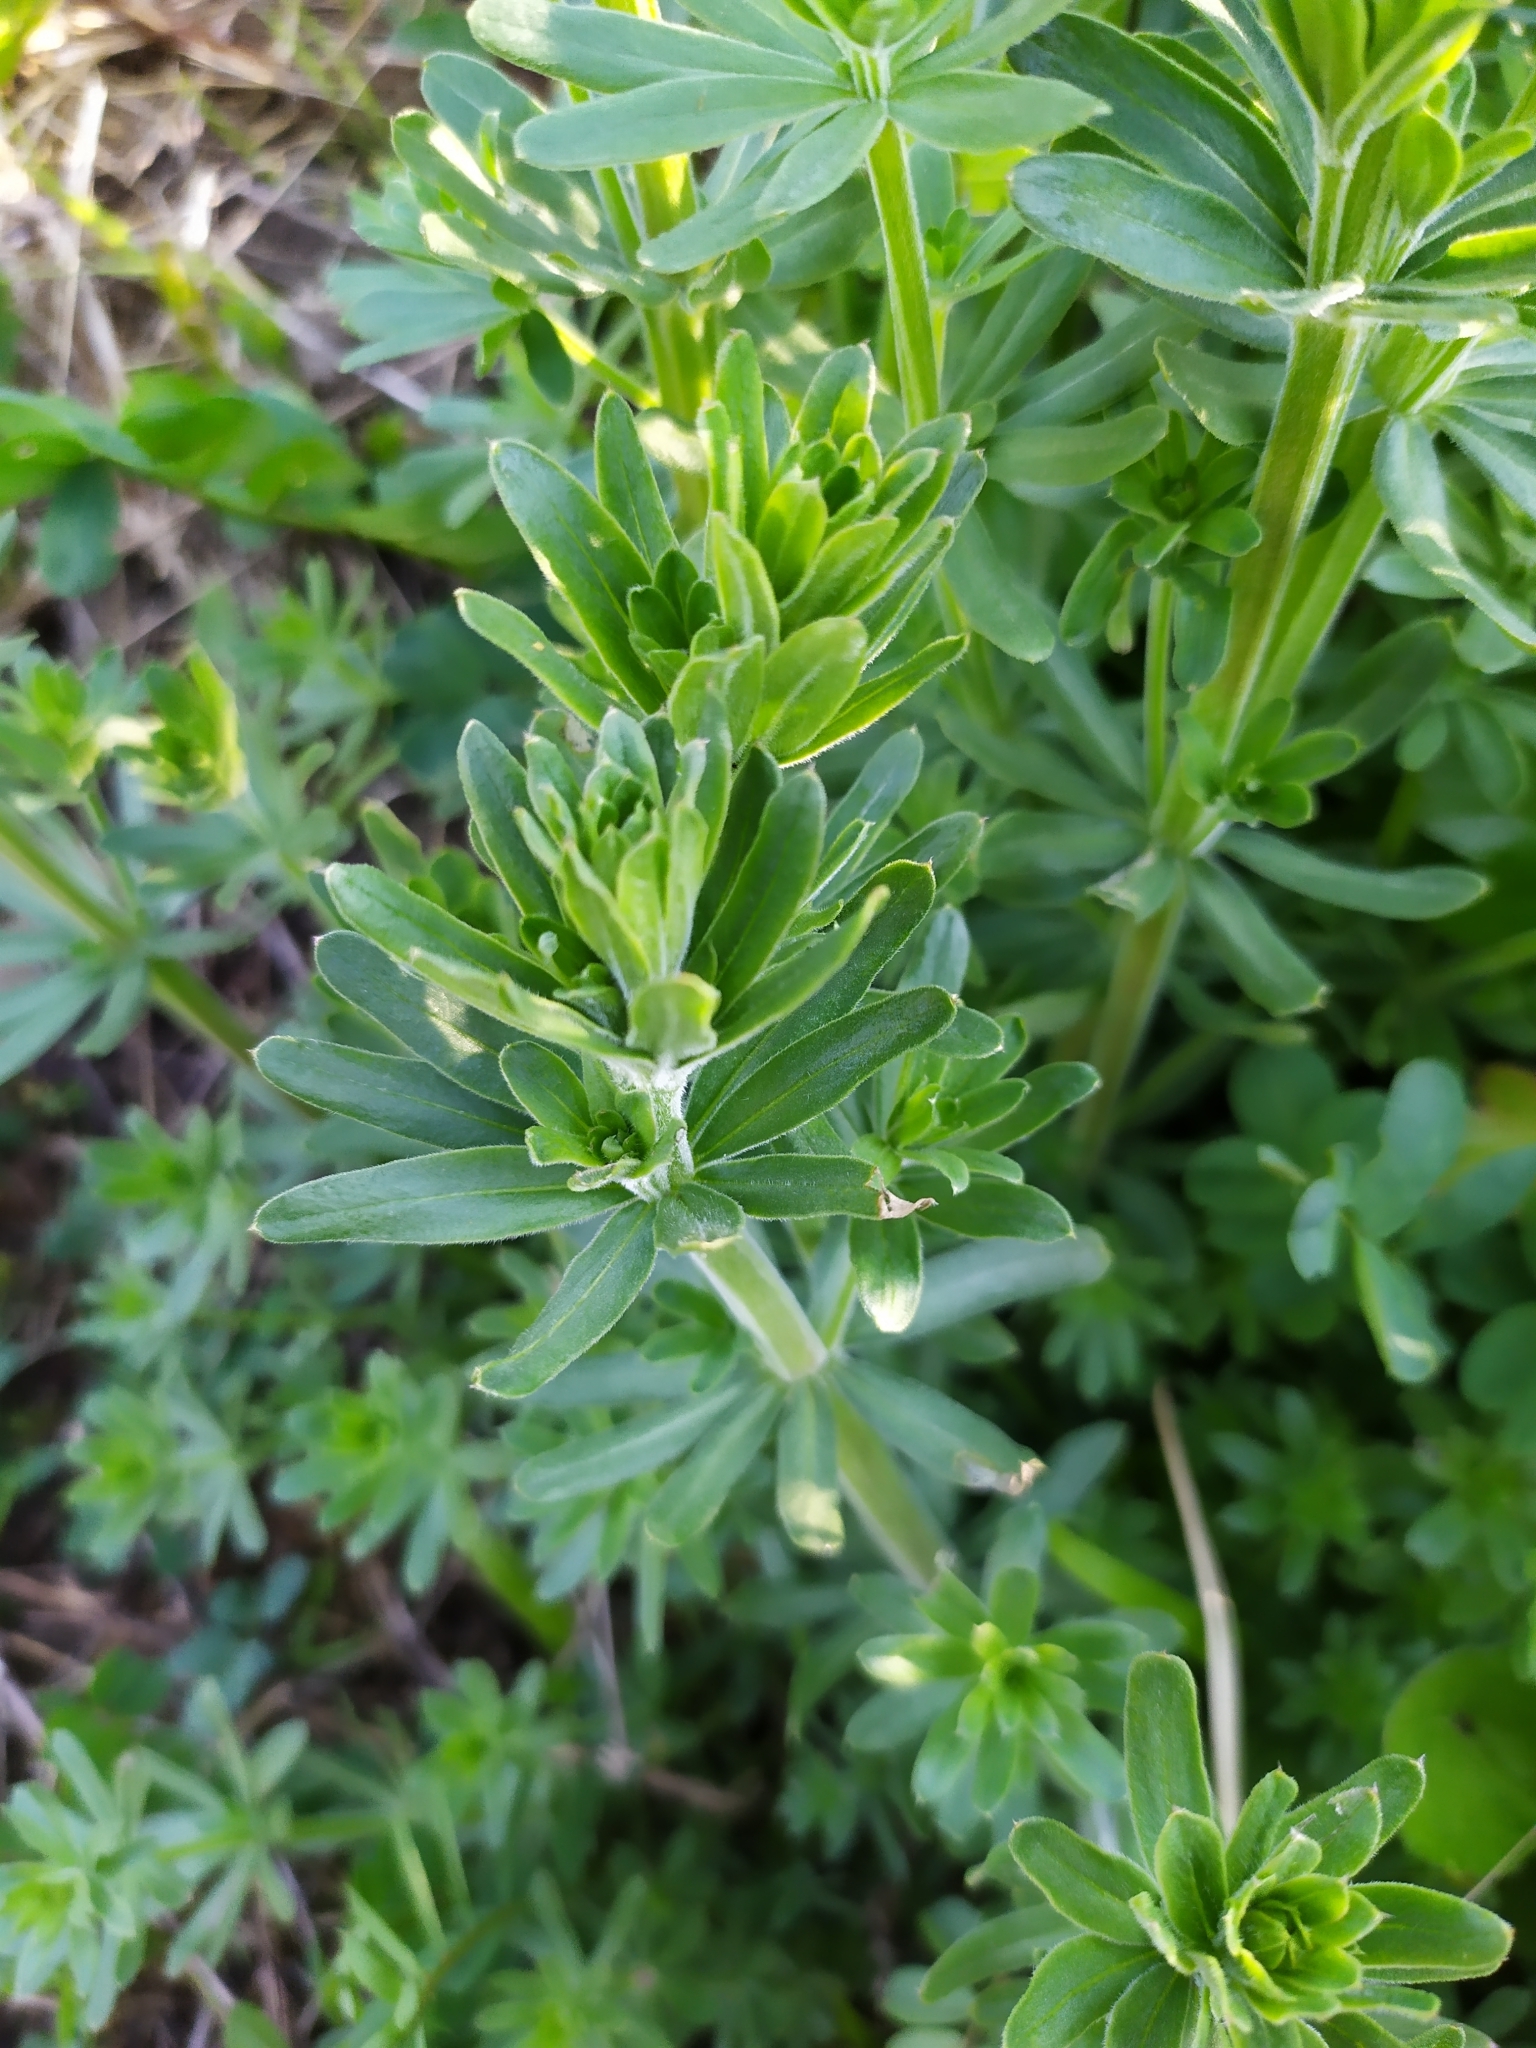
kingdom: Plantae
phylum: Tracheophyta
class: Magnoliopsida
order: Gentianales
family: Rubiaceae
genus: Galium
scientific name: Galium album
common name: White bedstraw
